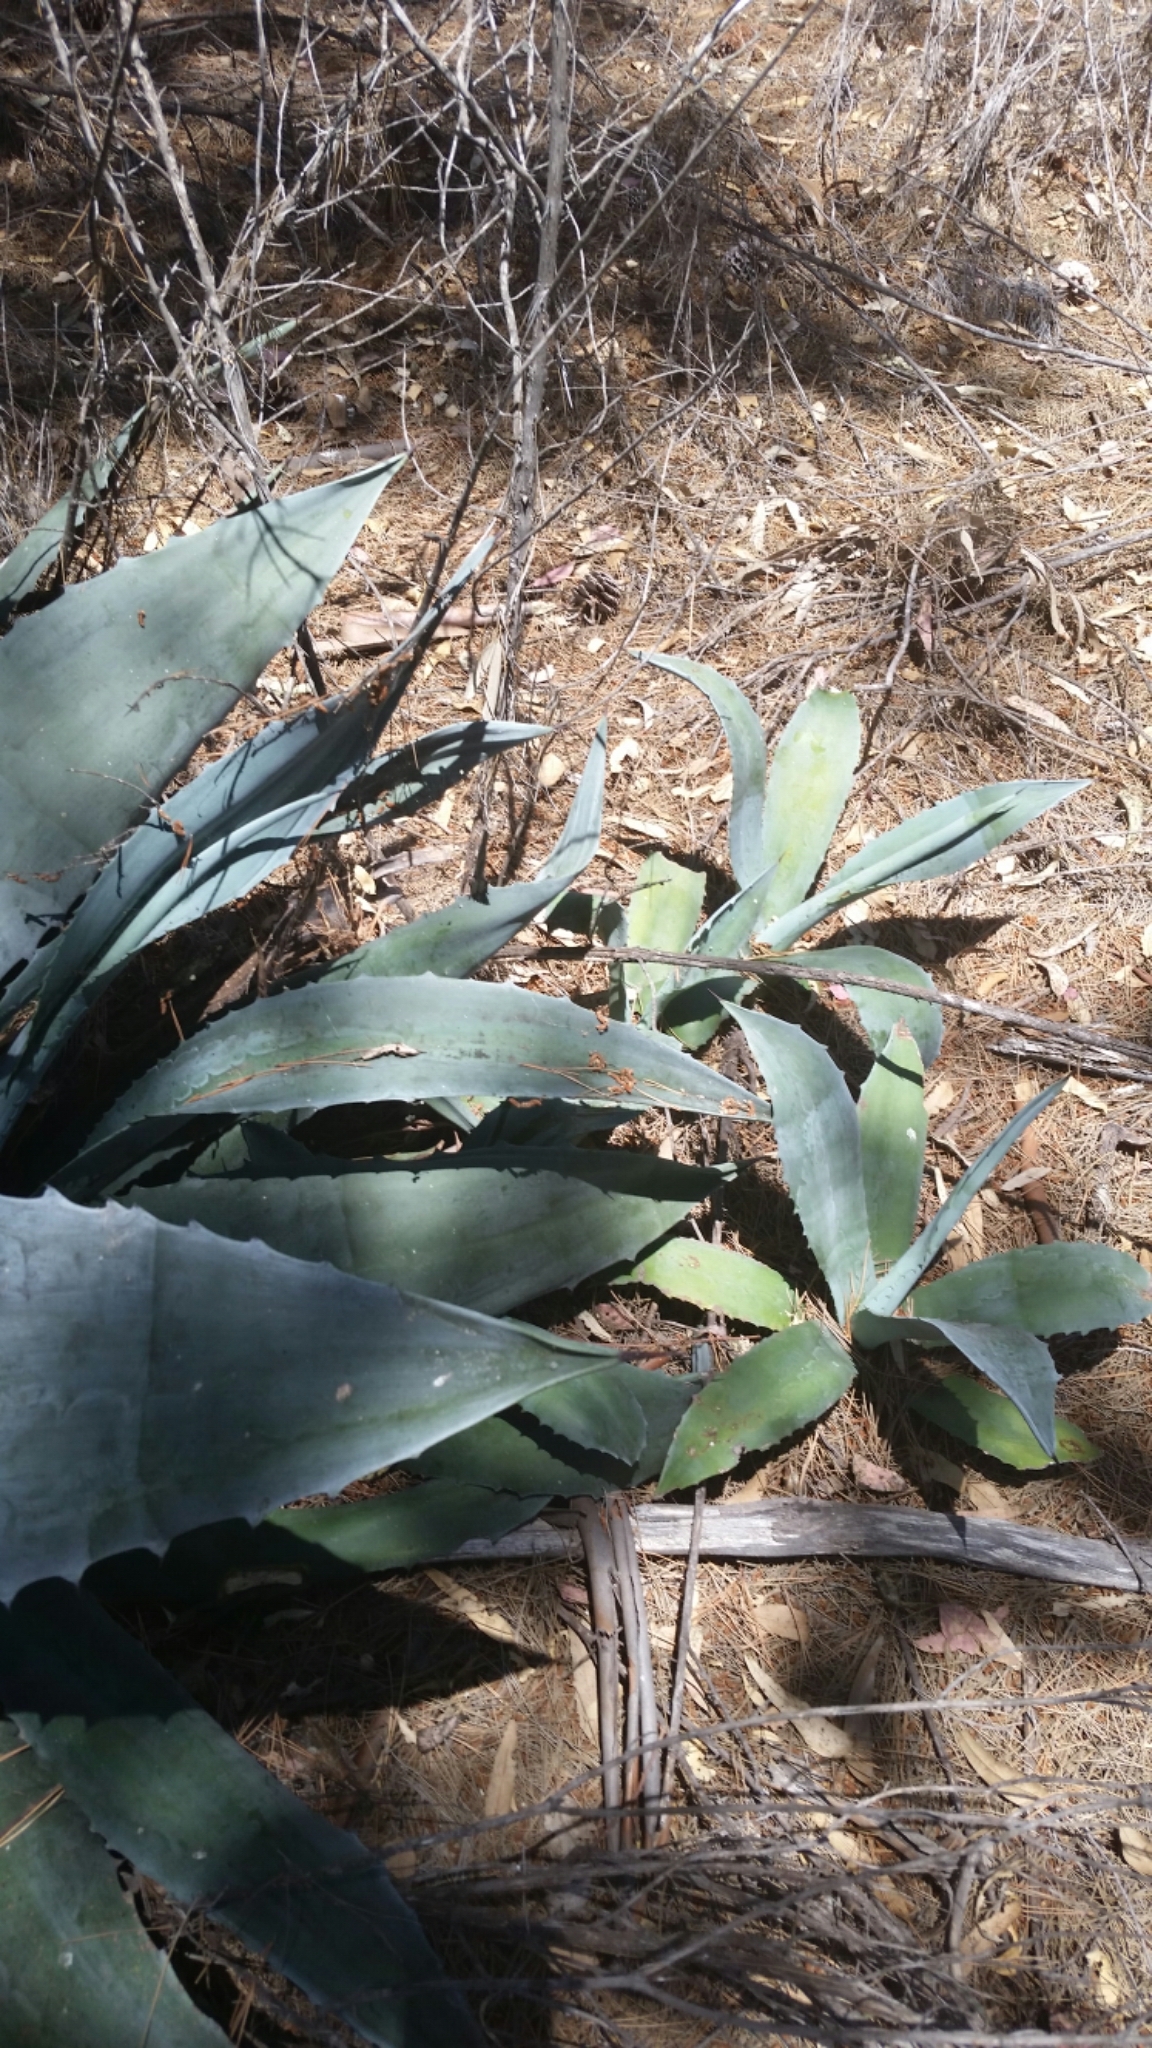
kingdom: Plantae
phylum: Tracheophyta
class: Liliopsida
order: Asparagales
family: Asparagaceae
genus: Agave
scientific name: Agave americana
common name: Centuryplant
